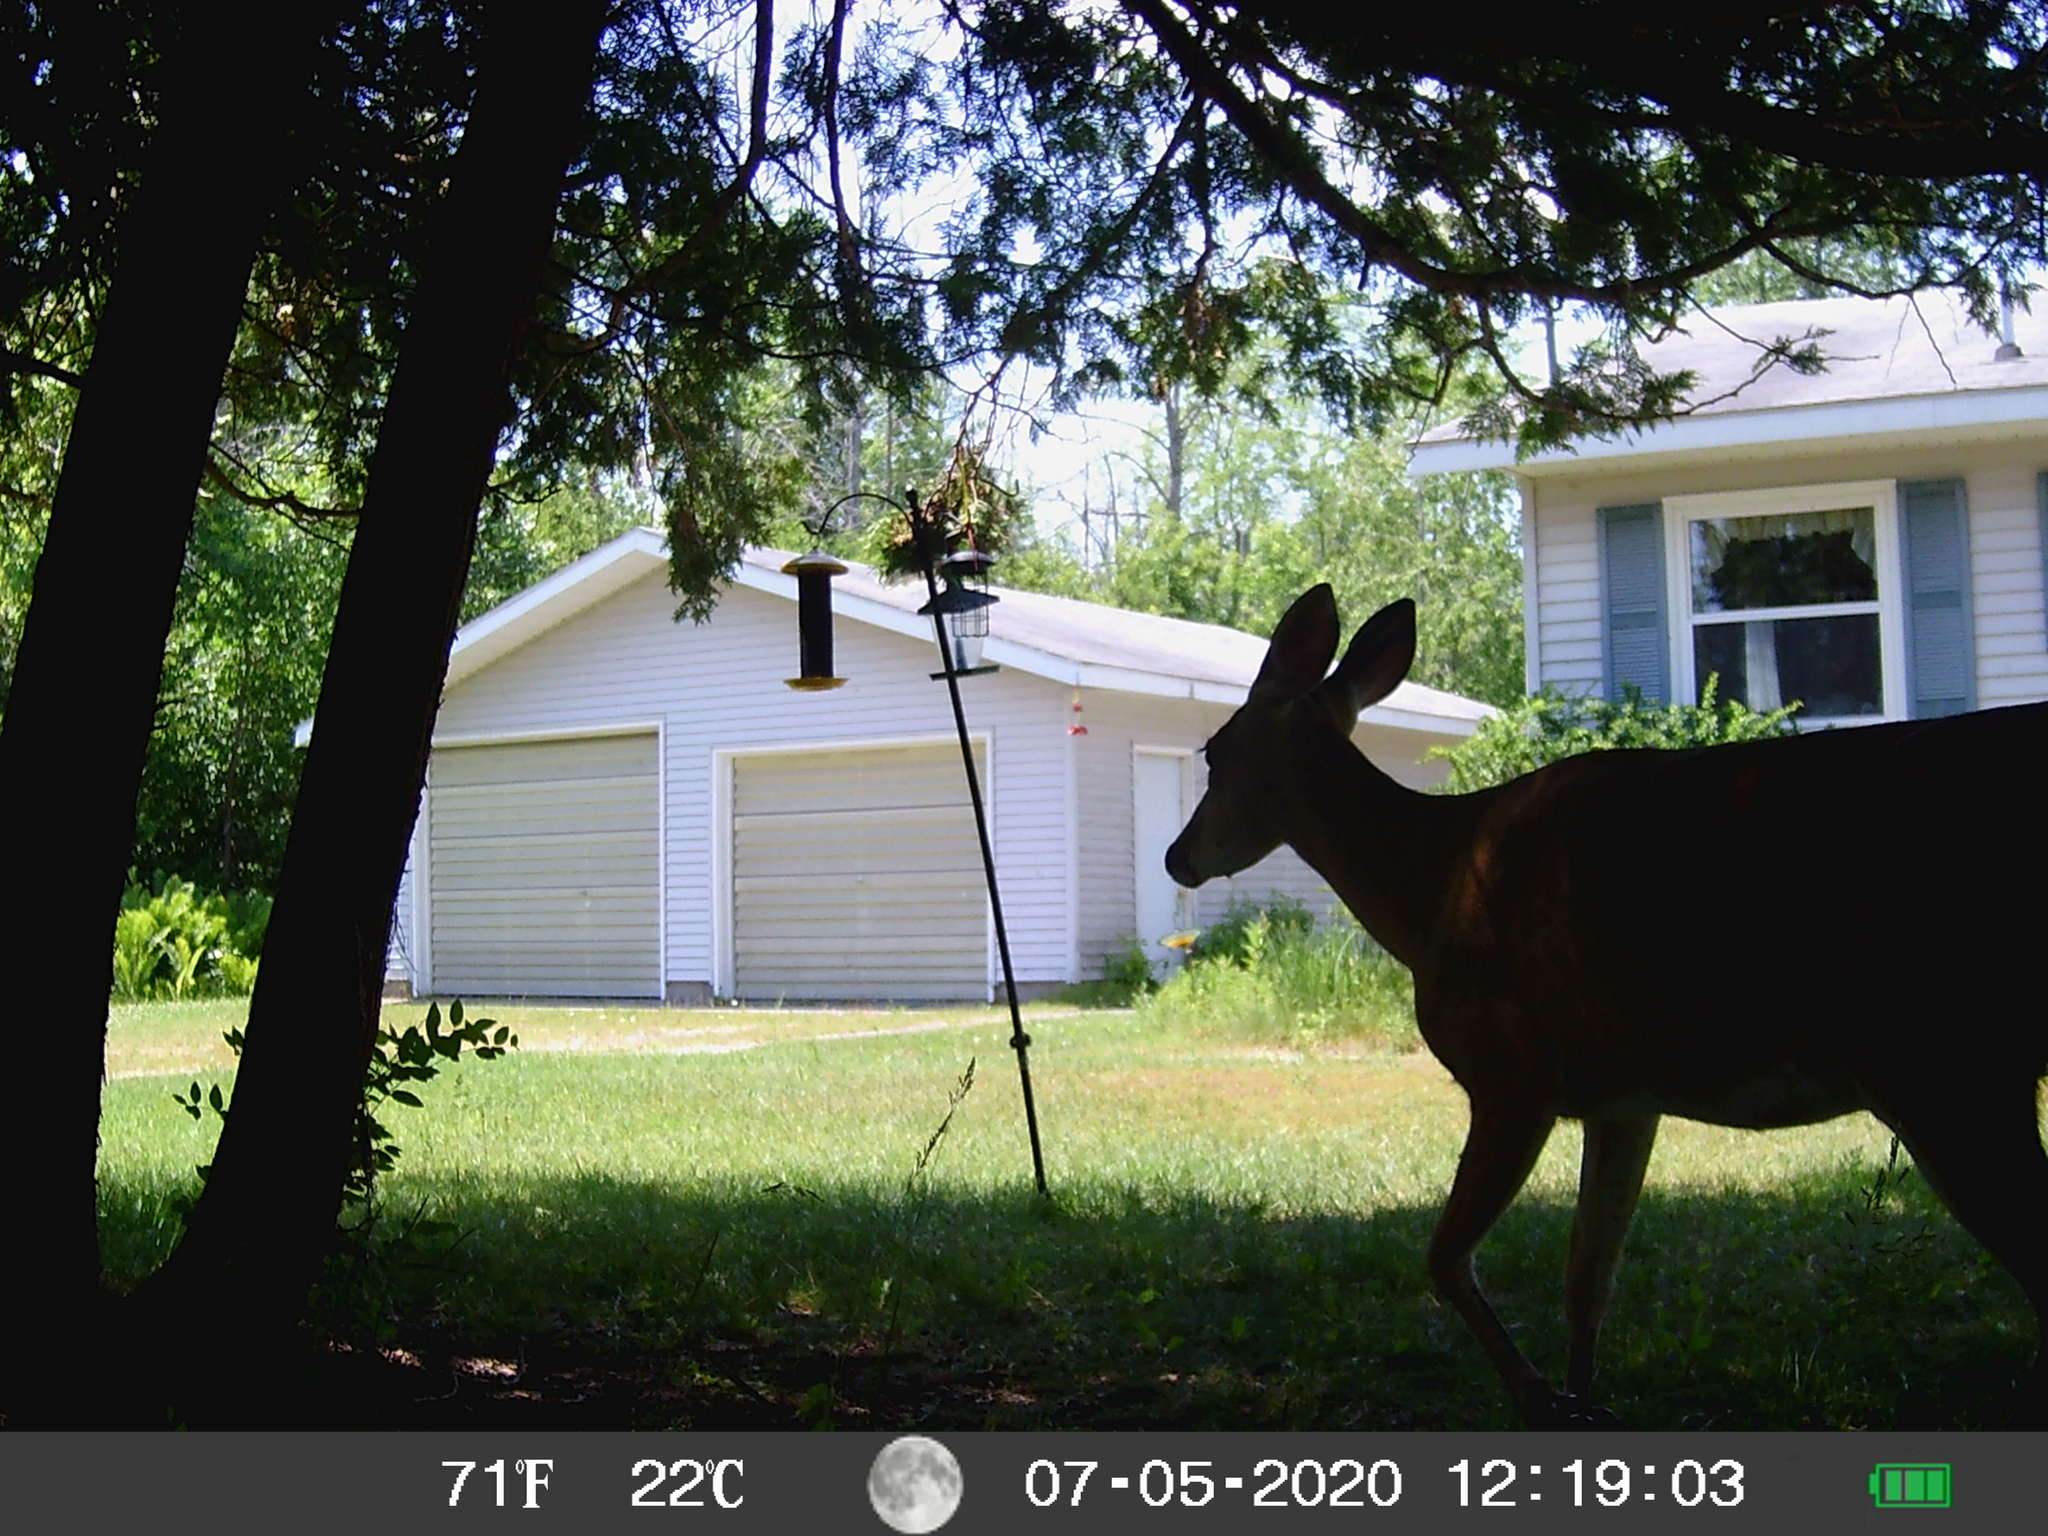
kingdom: Animalia
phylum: Chordata
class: Mammalia
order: Artiodactyla
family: Cervidae
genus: Odocoileus
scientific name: Odocoileus virginianus
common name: White-tailed deer
